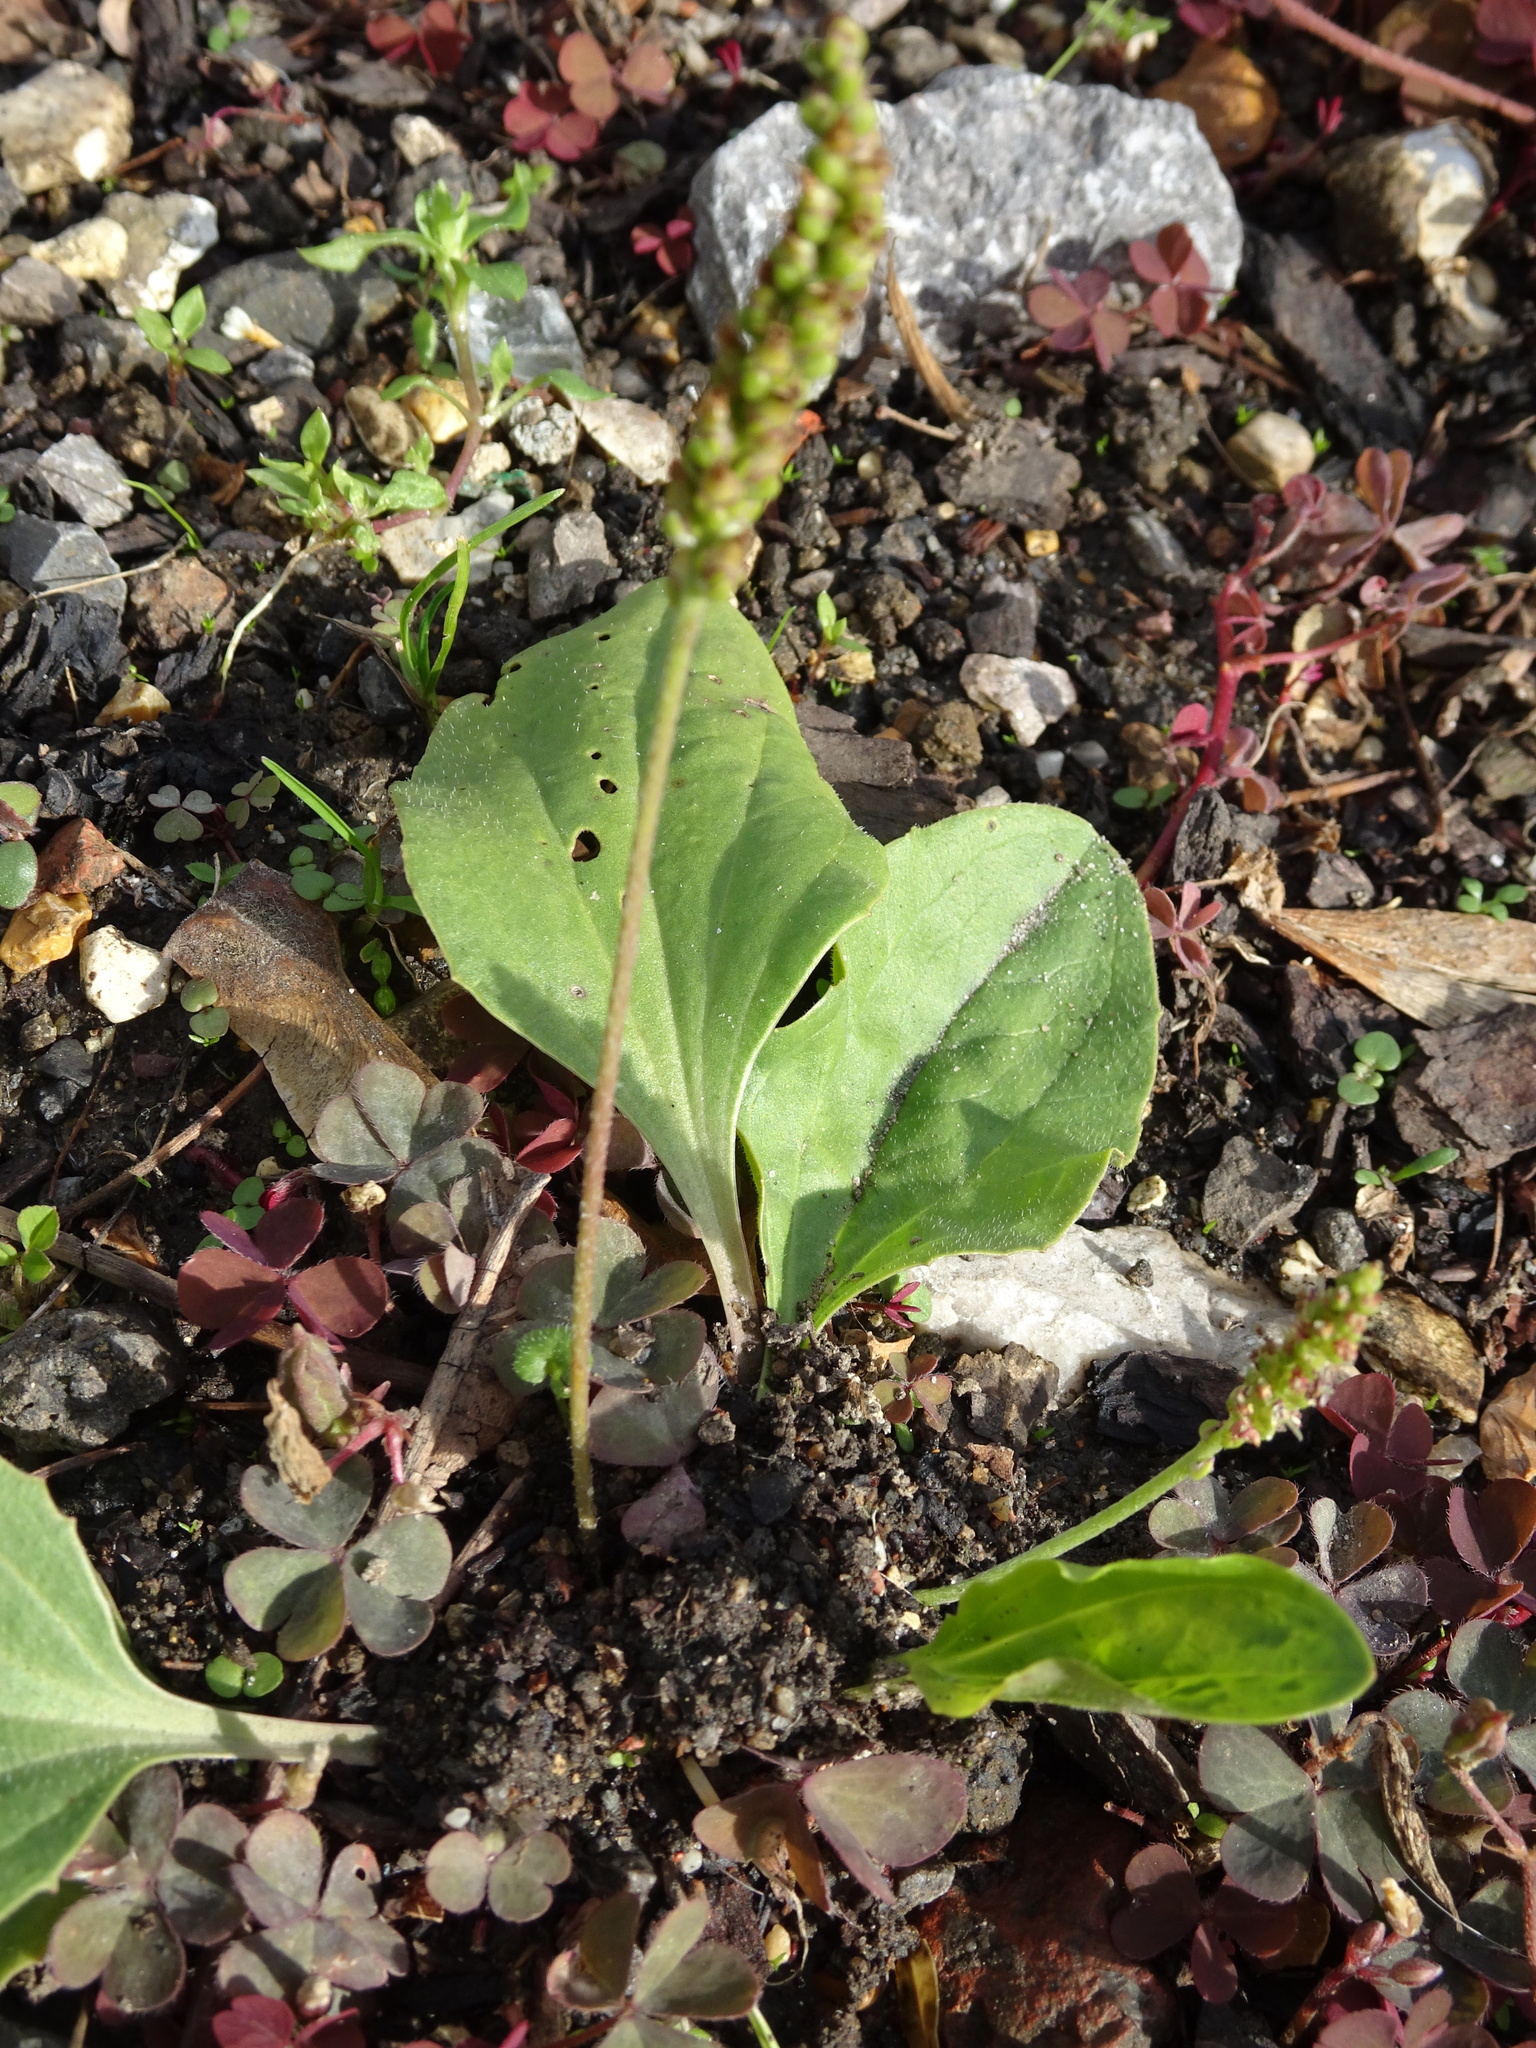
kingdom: Plantae
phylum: Tracheophyta
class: Magnoliopsida
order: Lamiales
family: Plantaginaceae
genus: Plantago
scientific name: Plantago major
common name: Common plantain
